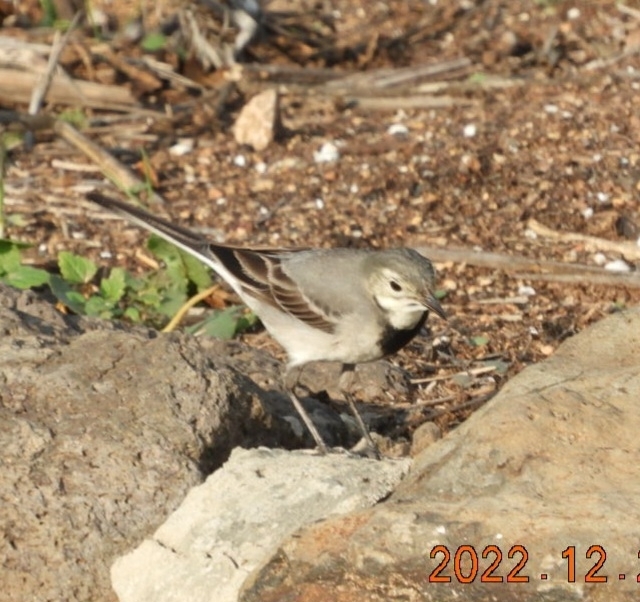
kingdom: Animalia
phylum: Chordata
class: Aves
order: Passeriformes
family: Motacillidae
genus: Motacilla
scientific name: Motacilla alba
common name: White wagtail
